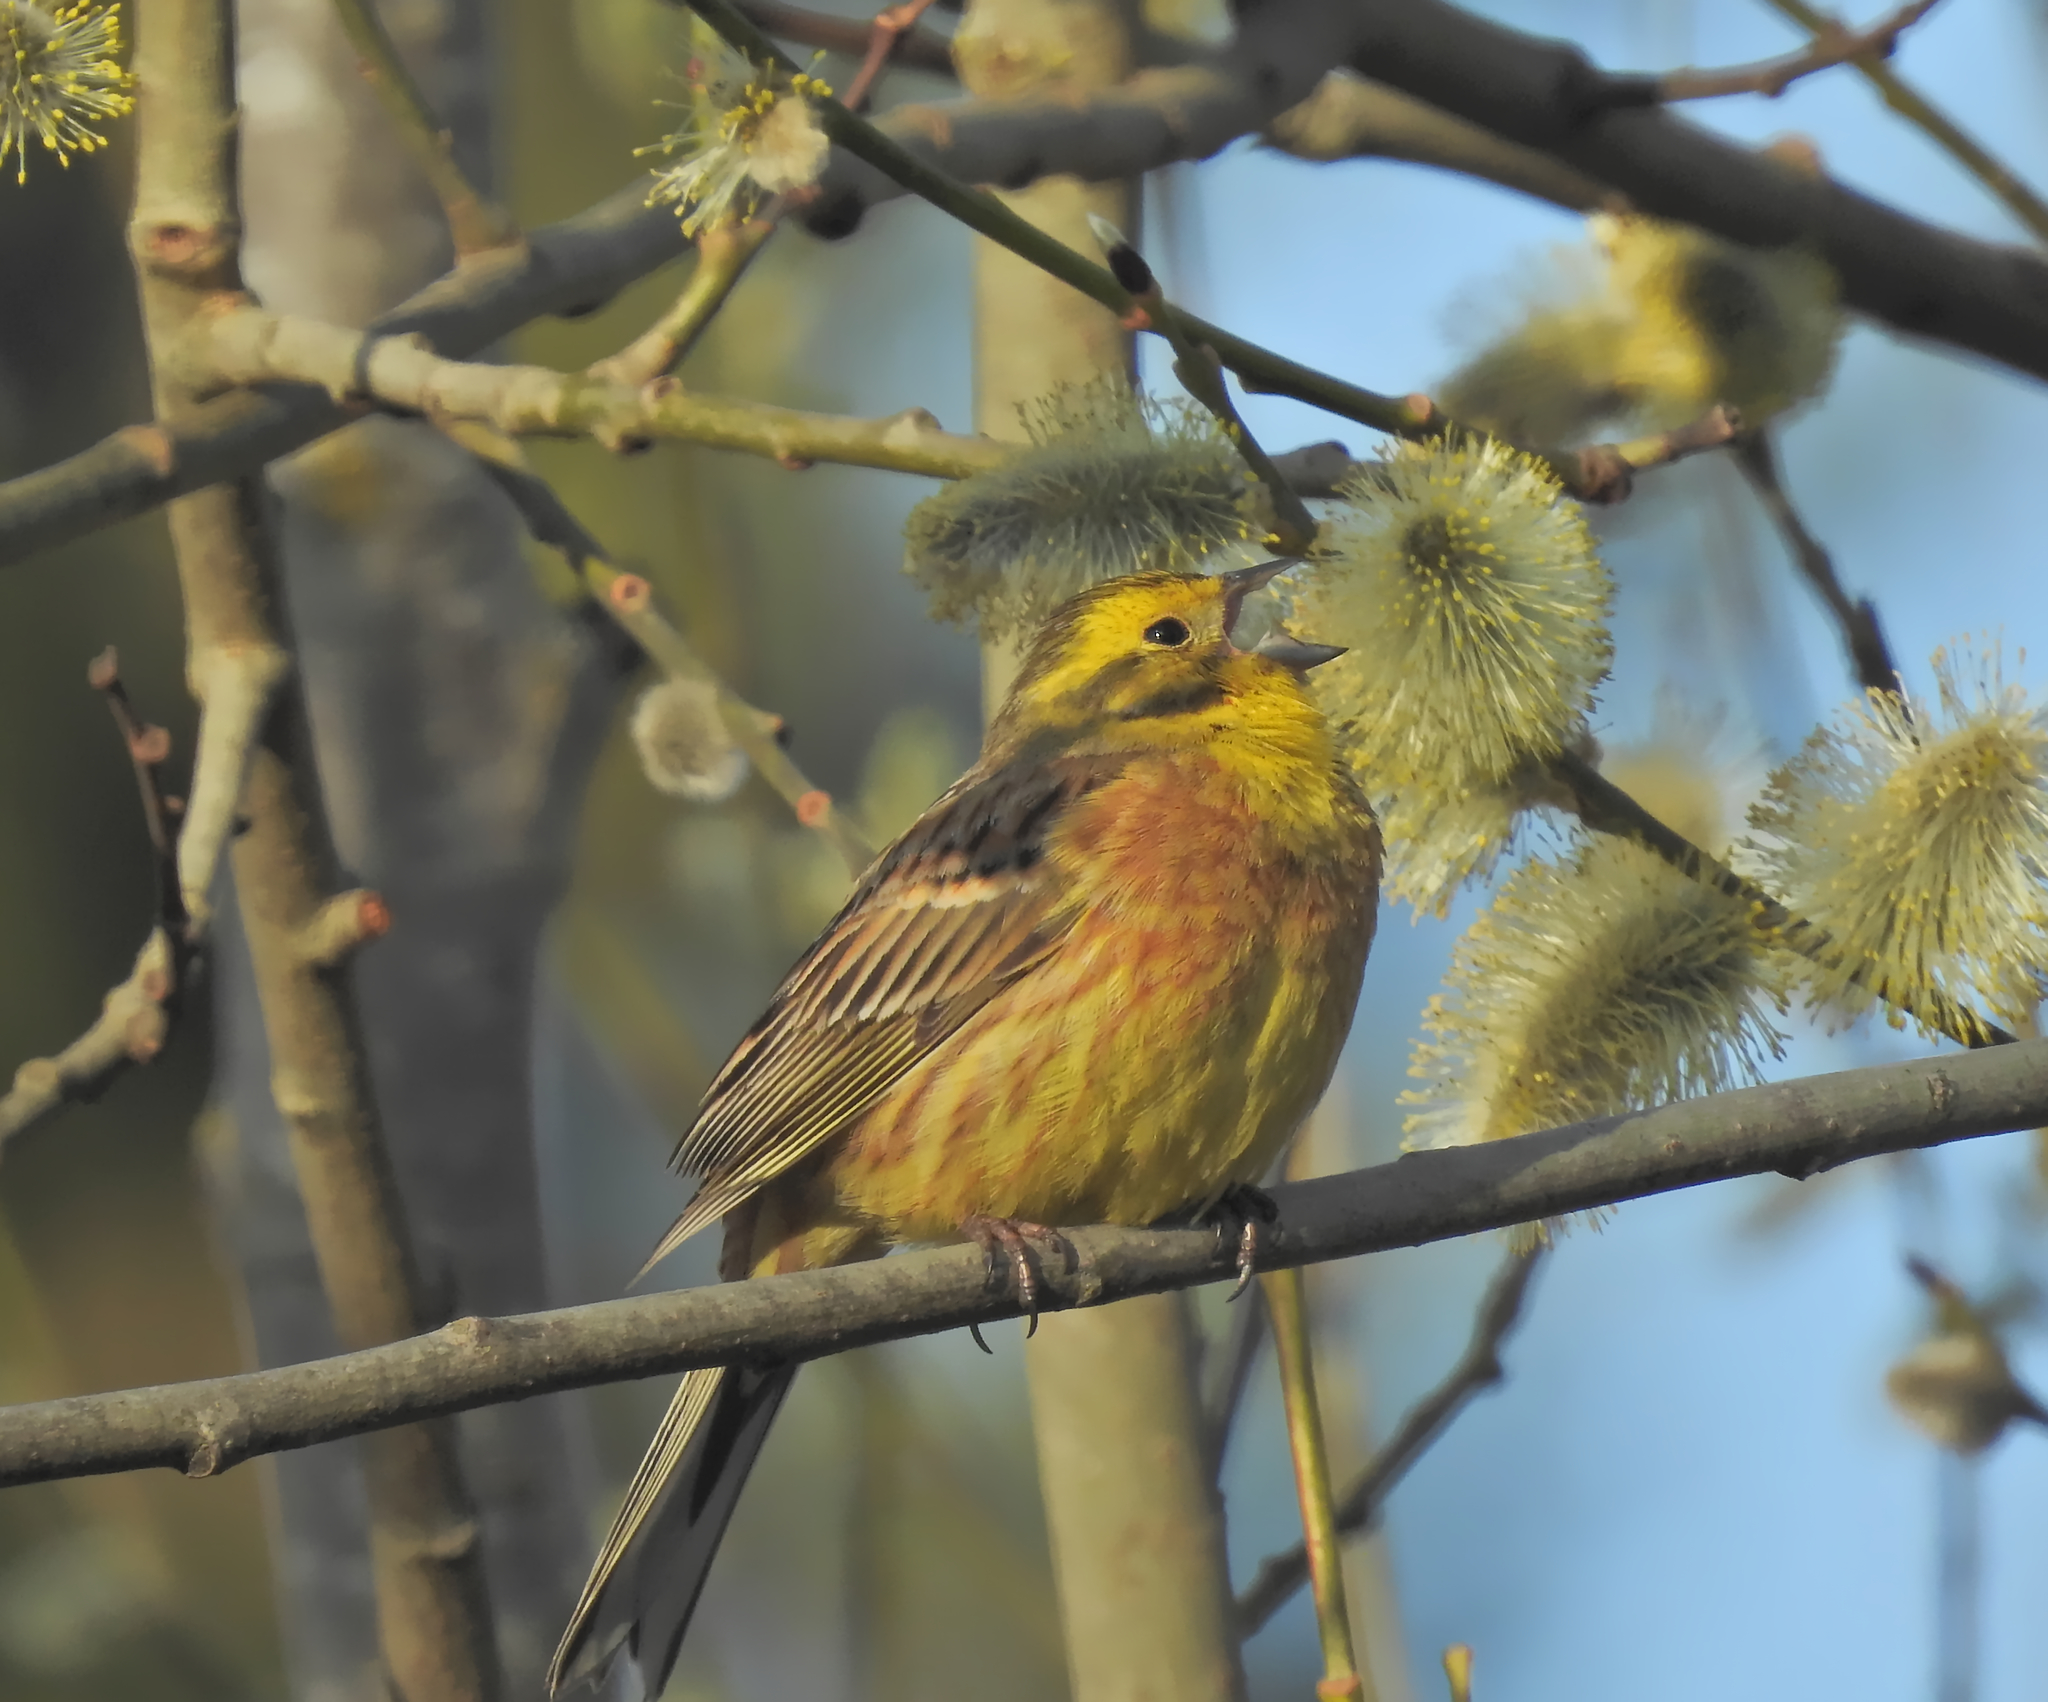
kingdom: Animalia
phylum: Chordata
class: Aves
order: Passeriformes
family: Emberizidae
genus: Emberiza
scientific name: Emberiza citrinella
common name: Yellowhammer
